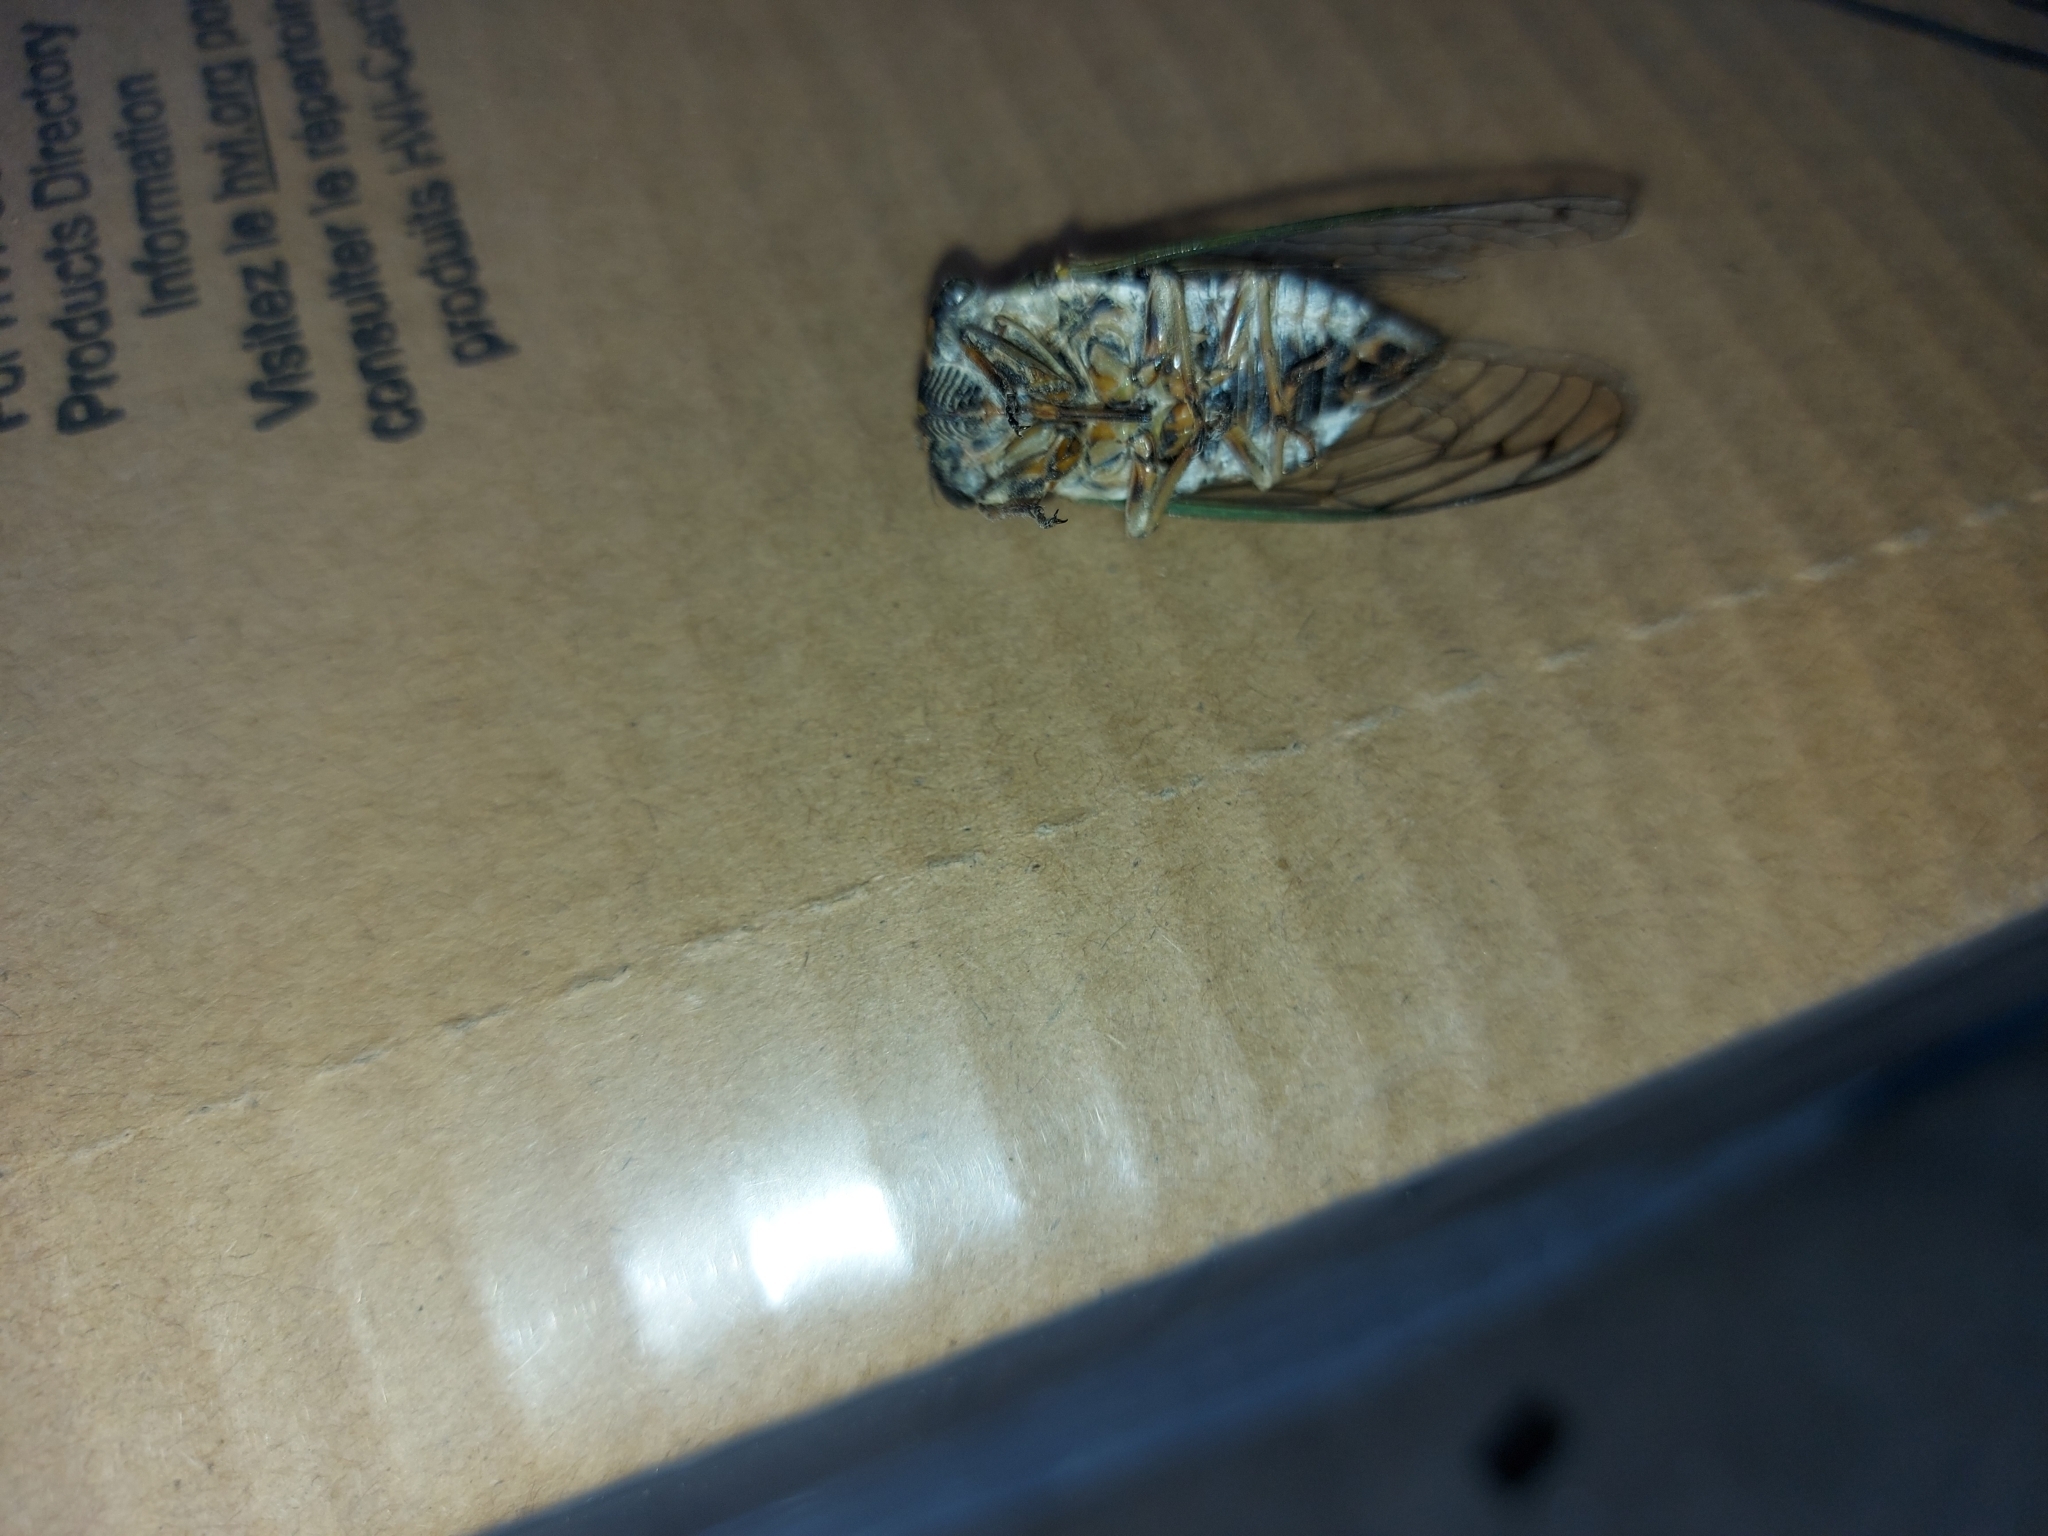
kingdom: Animalia
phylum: Arthropoda
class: Insecta
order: Hemiptera
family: Cicadidae
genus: Neotibicen
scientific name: Neotibicen canicularis
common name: God-day cicada
